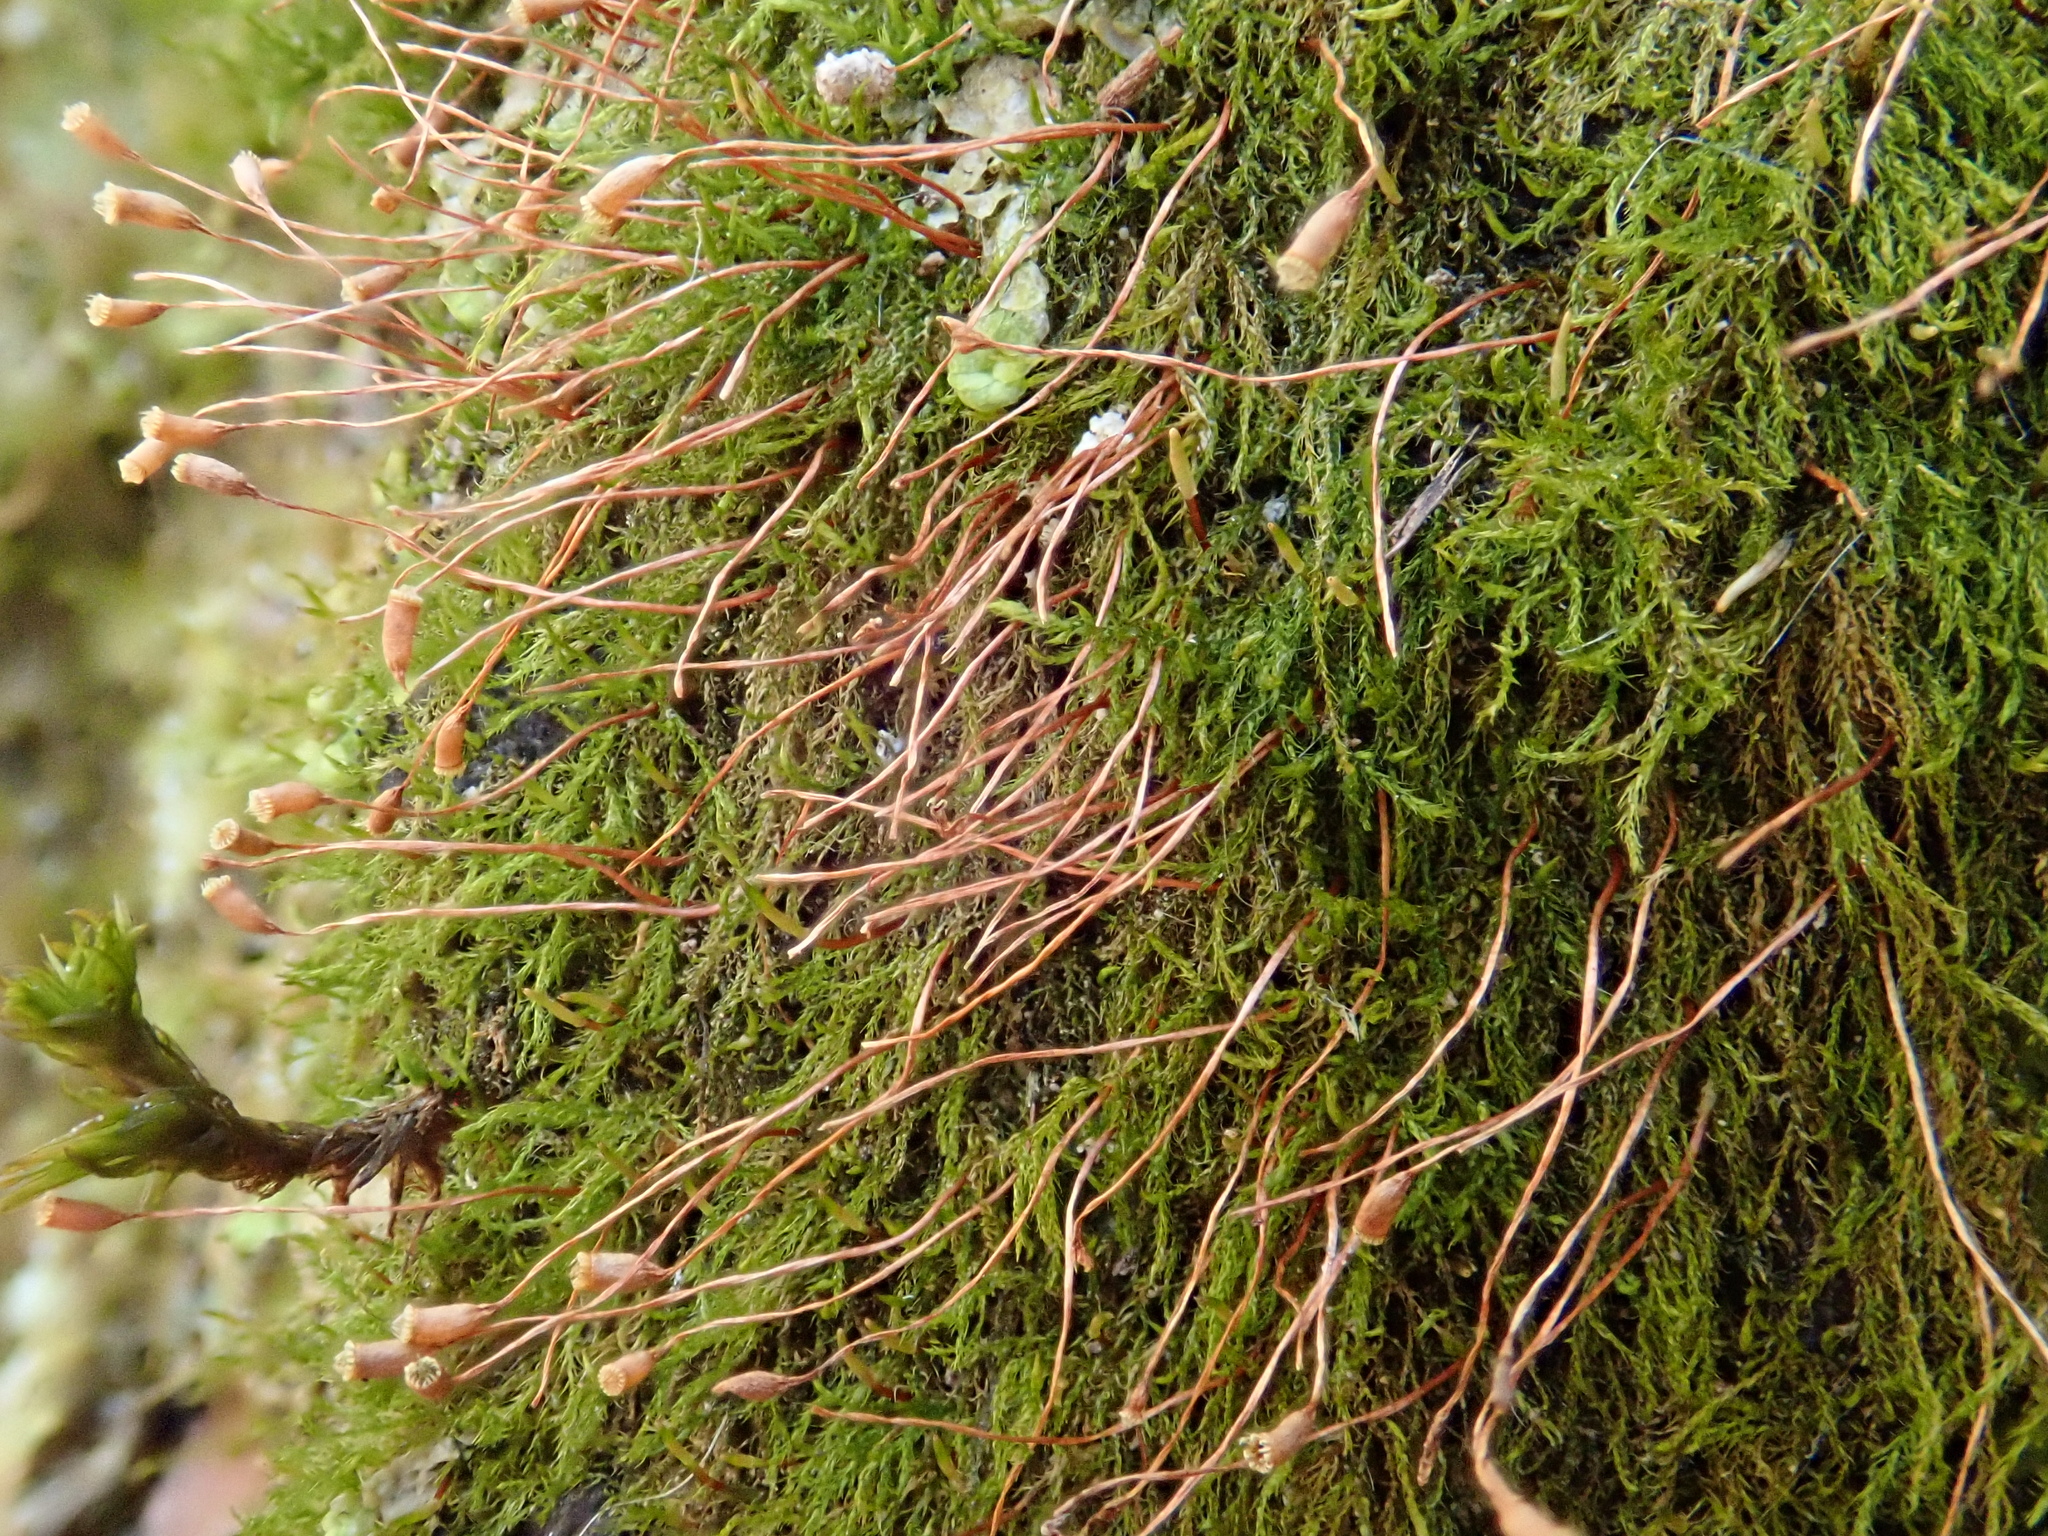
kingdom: Plantae
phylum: Bryophyta
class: Bryopsida
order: Hypnales
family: Amblystegiaceae
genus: Pseudoamblystegium
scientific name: Pseudoamblystegium subtile
